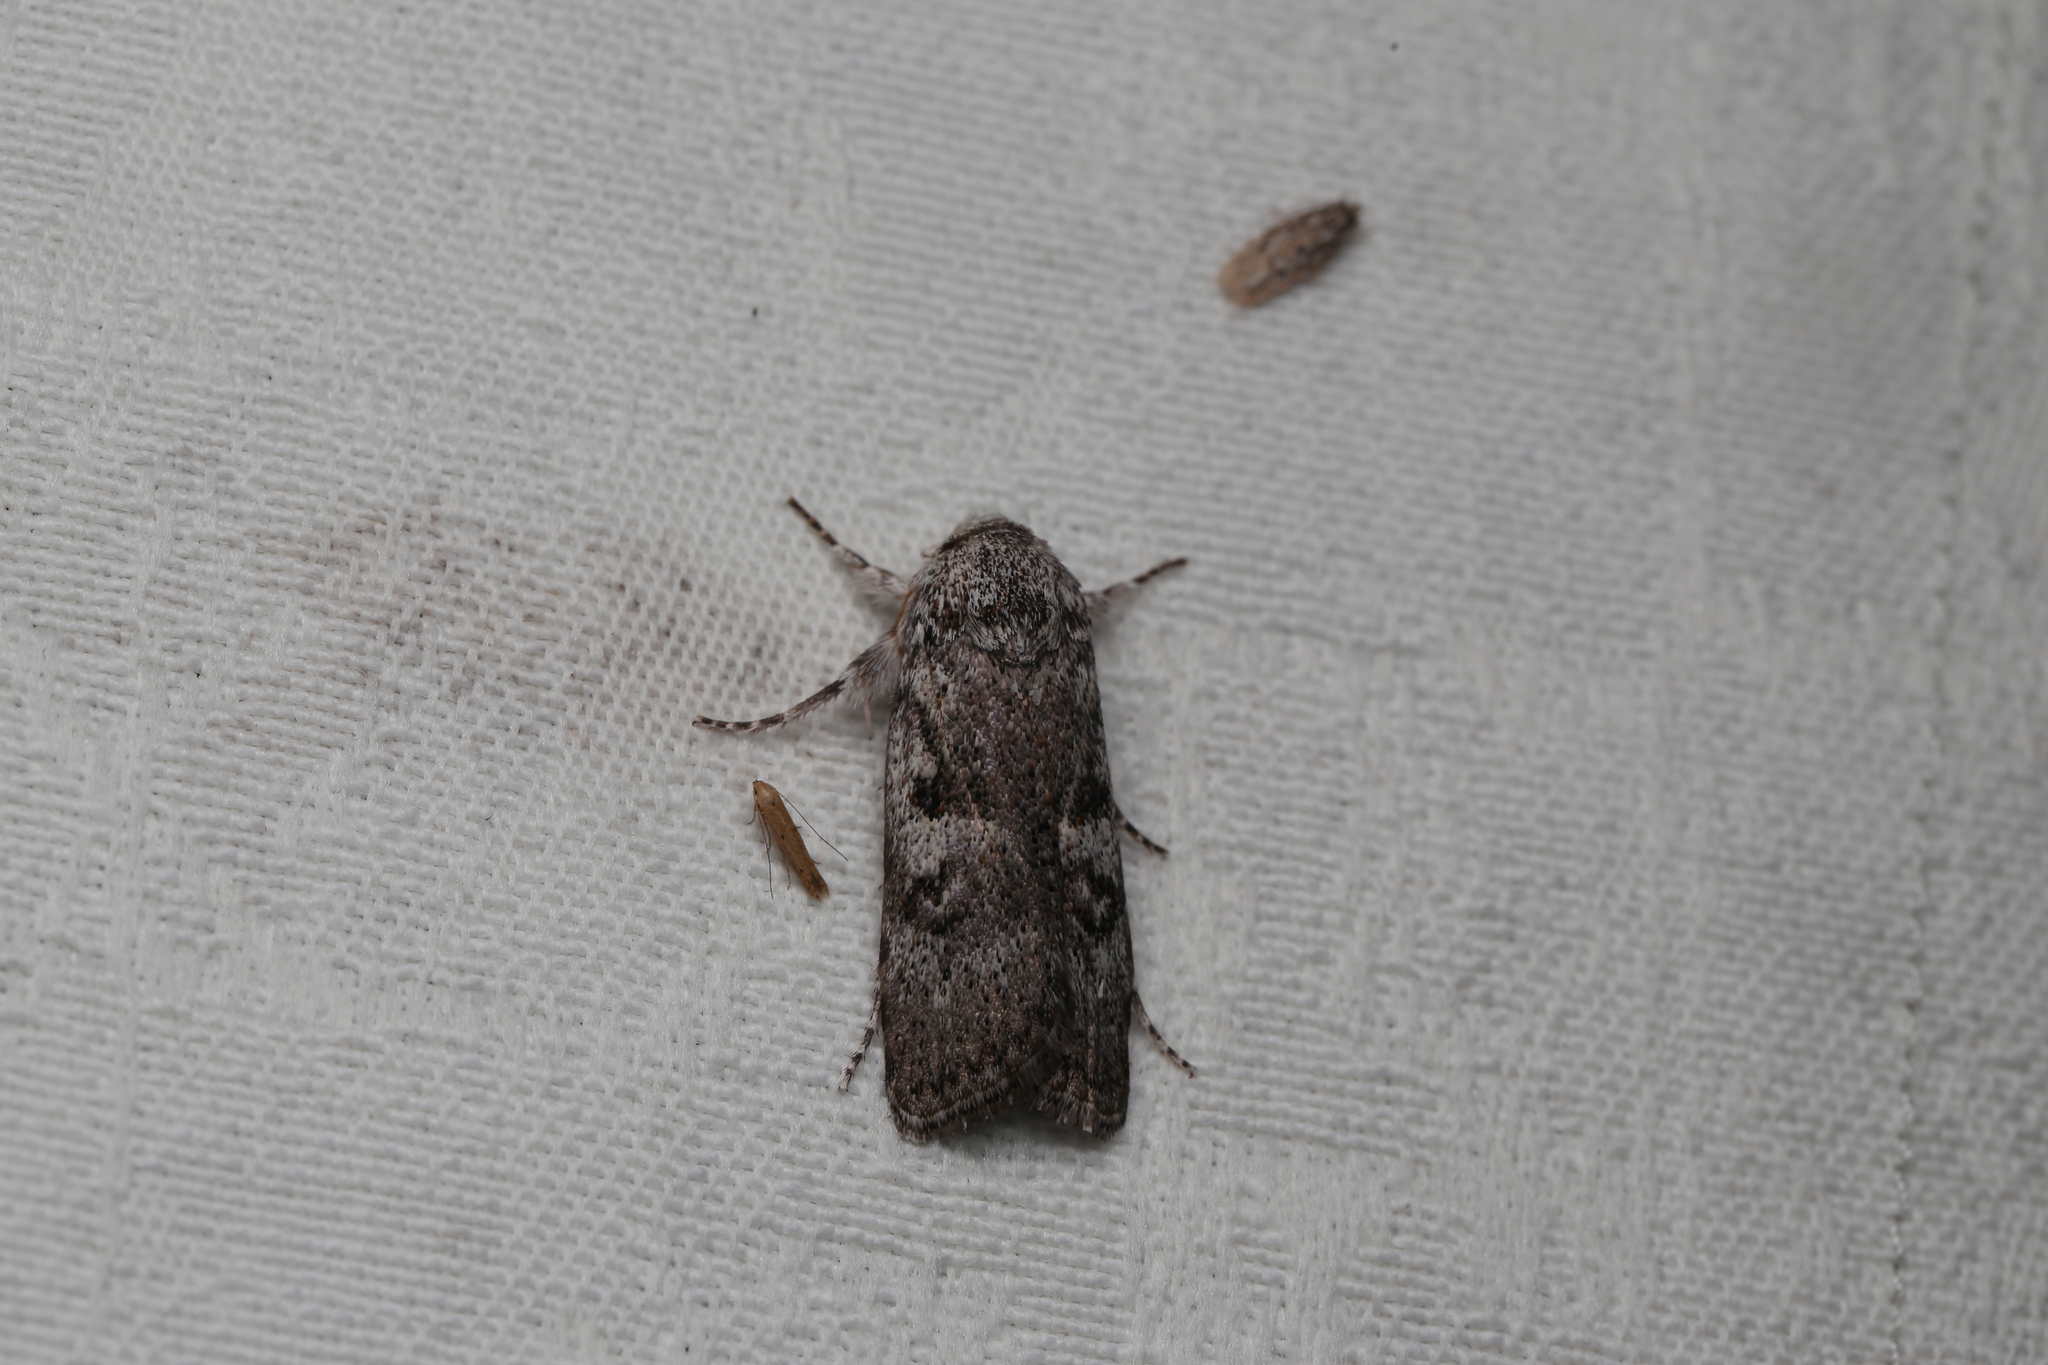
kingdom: Animalia
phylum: Arthropoda
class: Insecta
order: Lepidoptera
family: Xyloryctidae
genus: Cryptophasa
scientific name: Cryptophasa irrorata
